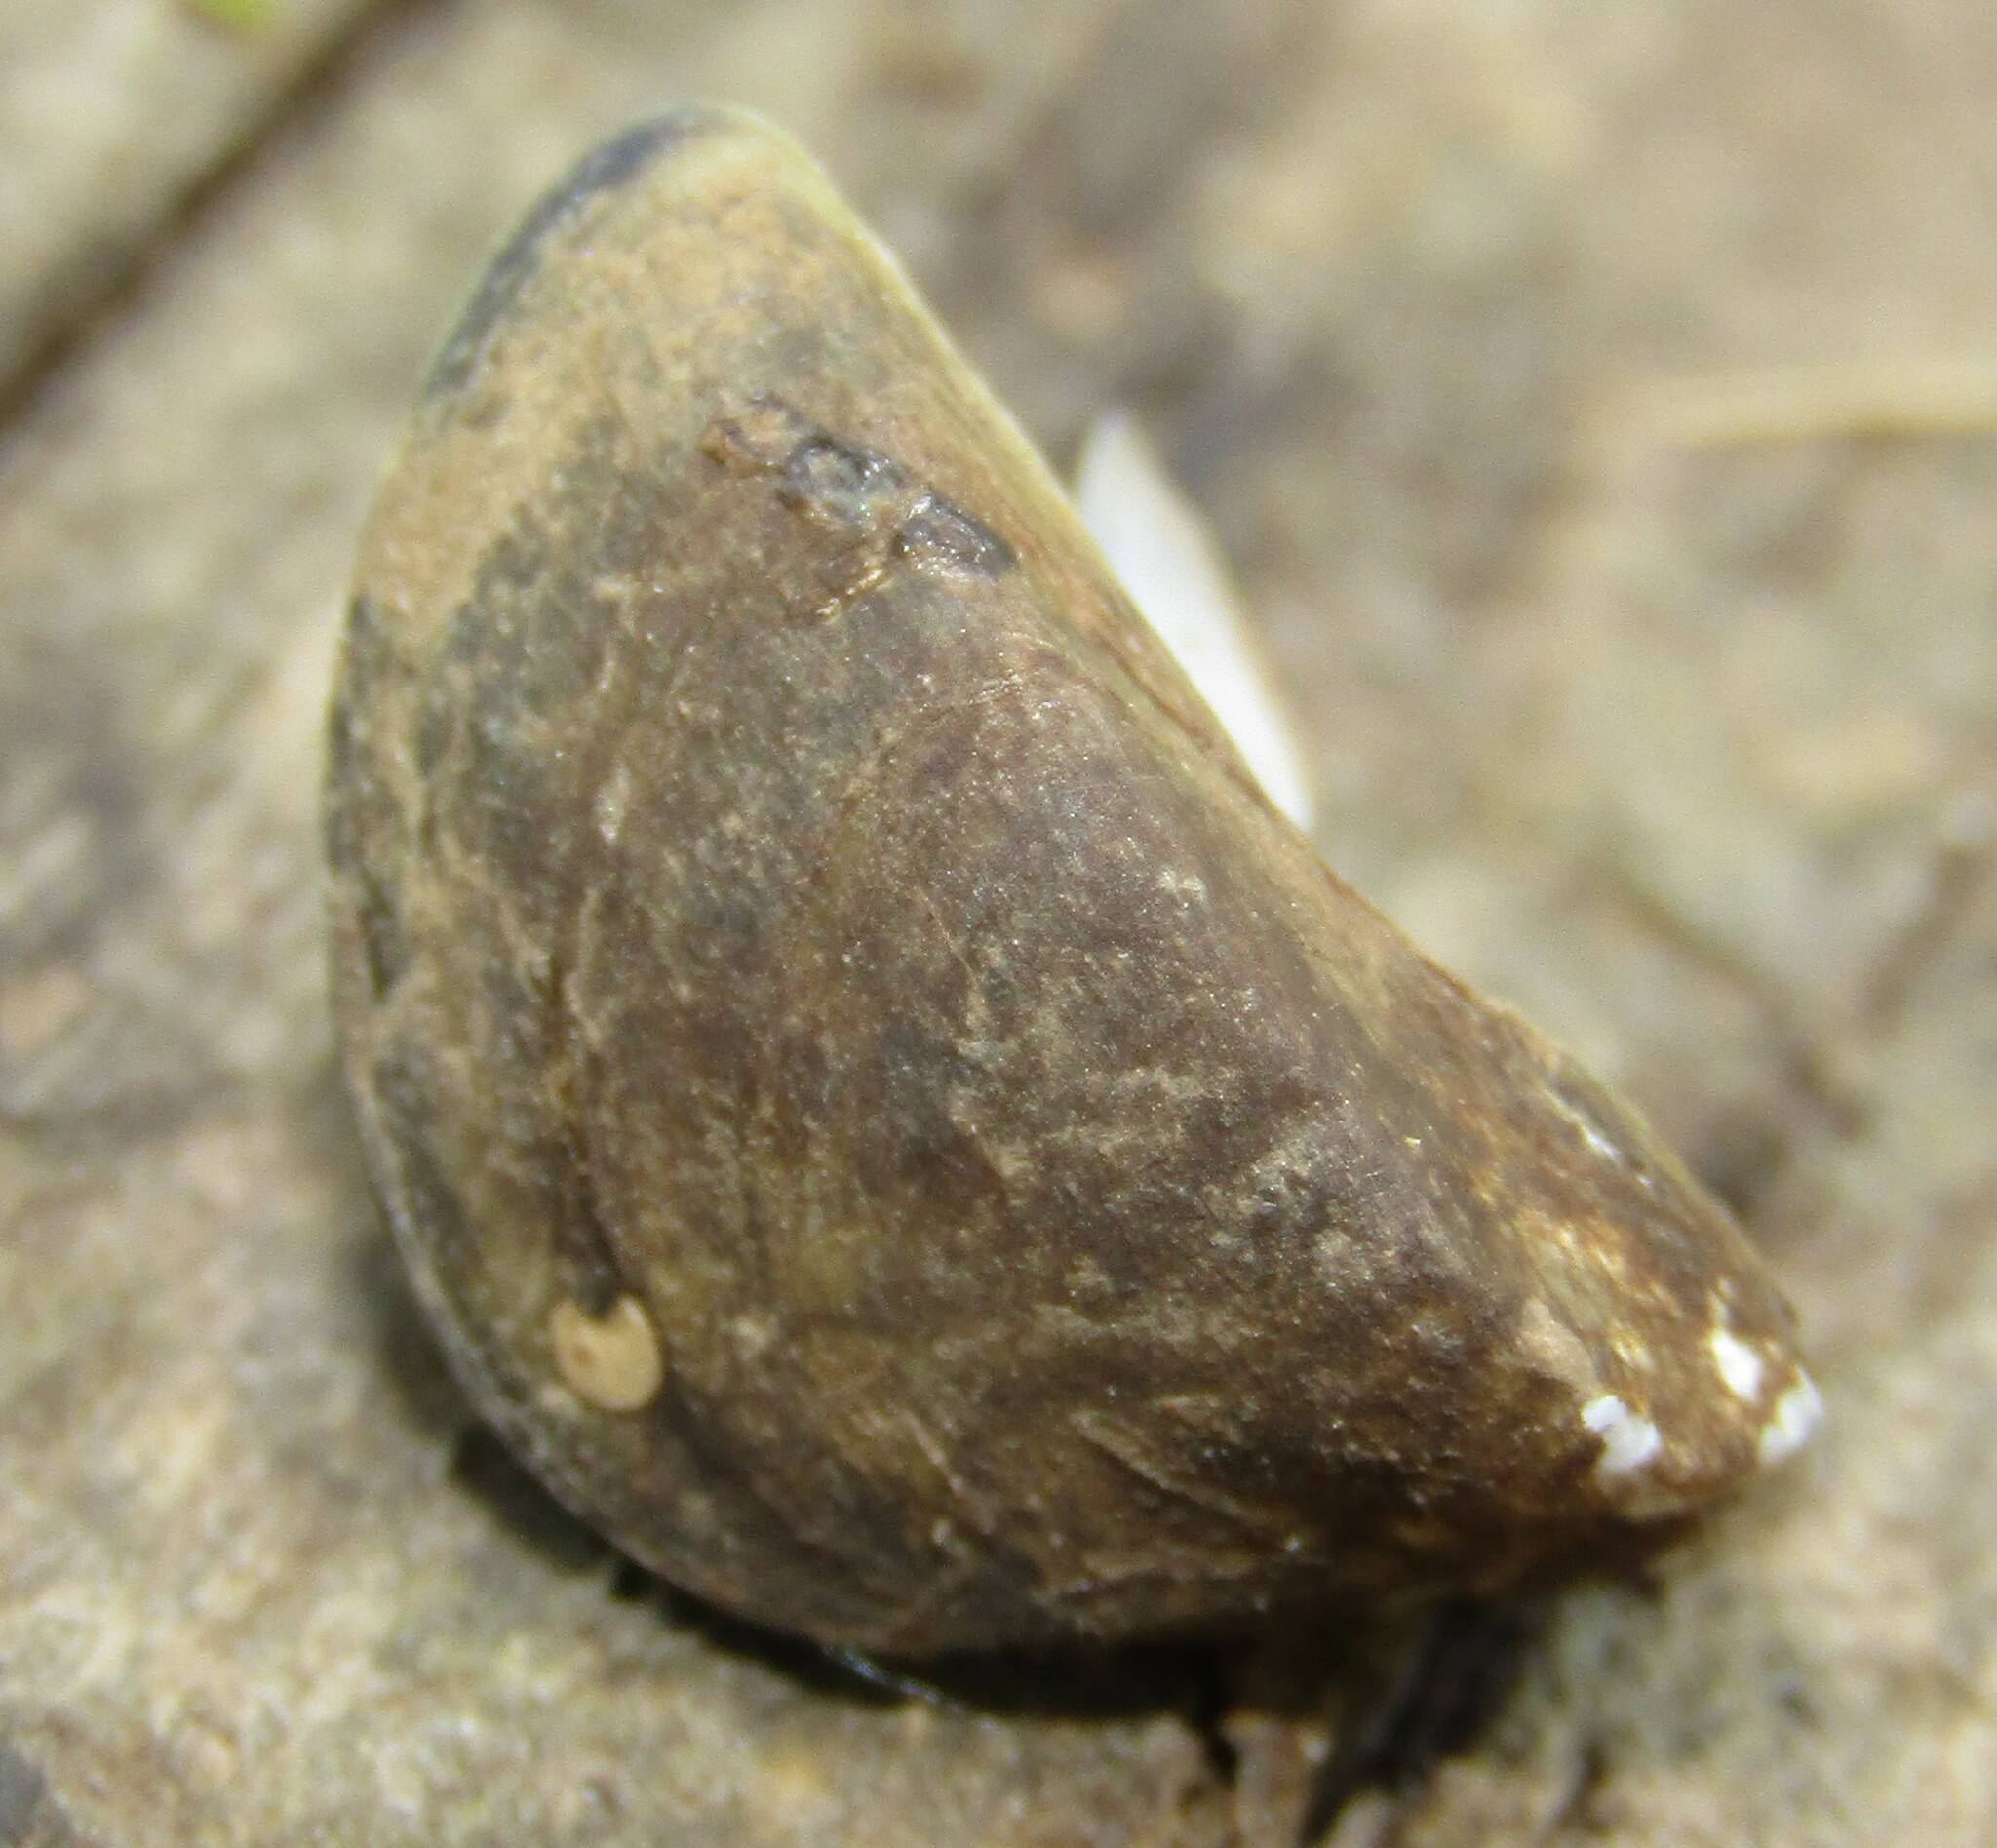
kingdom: Animalia
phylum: Mollusca
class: Bivalvia
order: Myida
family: Dreissenidae
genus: Dreissena
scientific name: Dreissena polymorpha
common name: Zebra mussel
